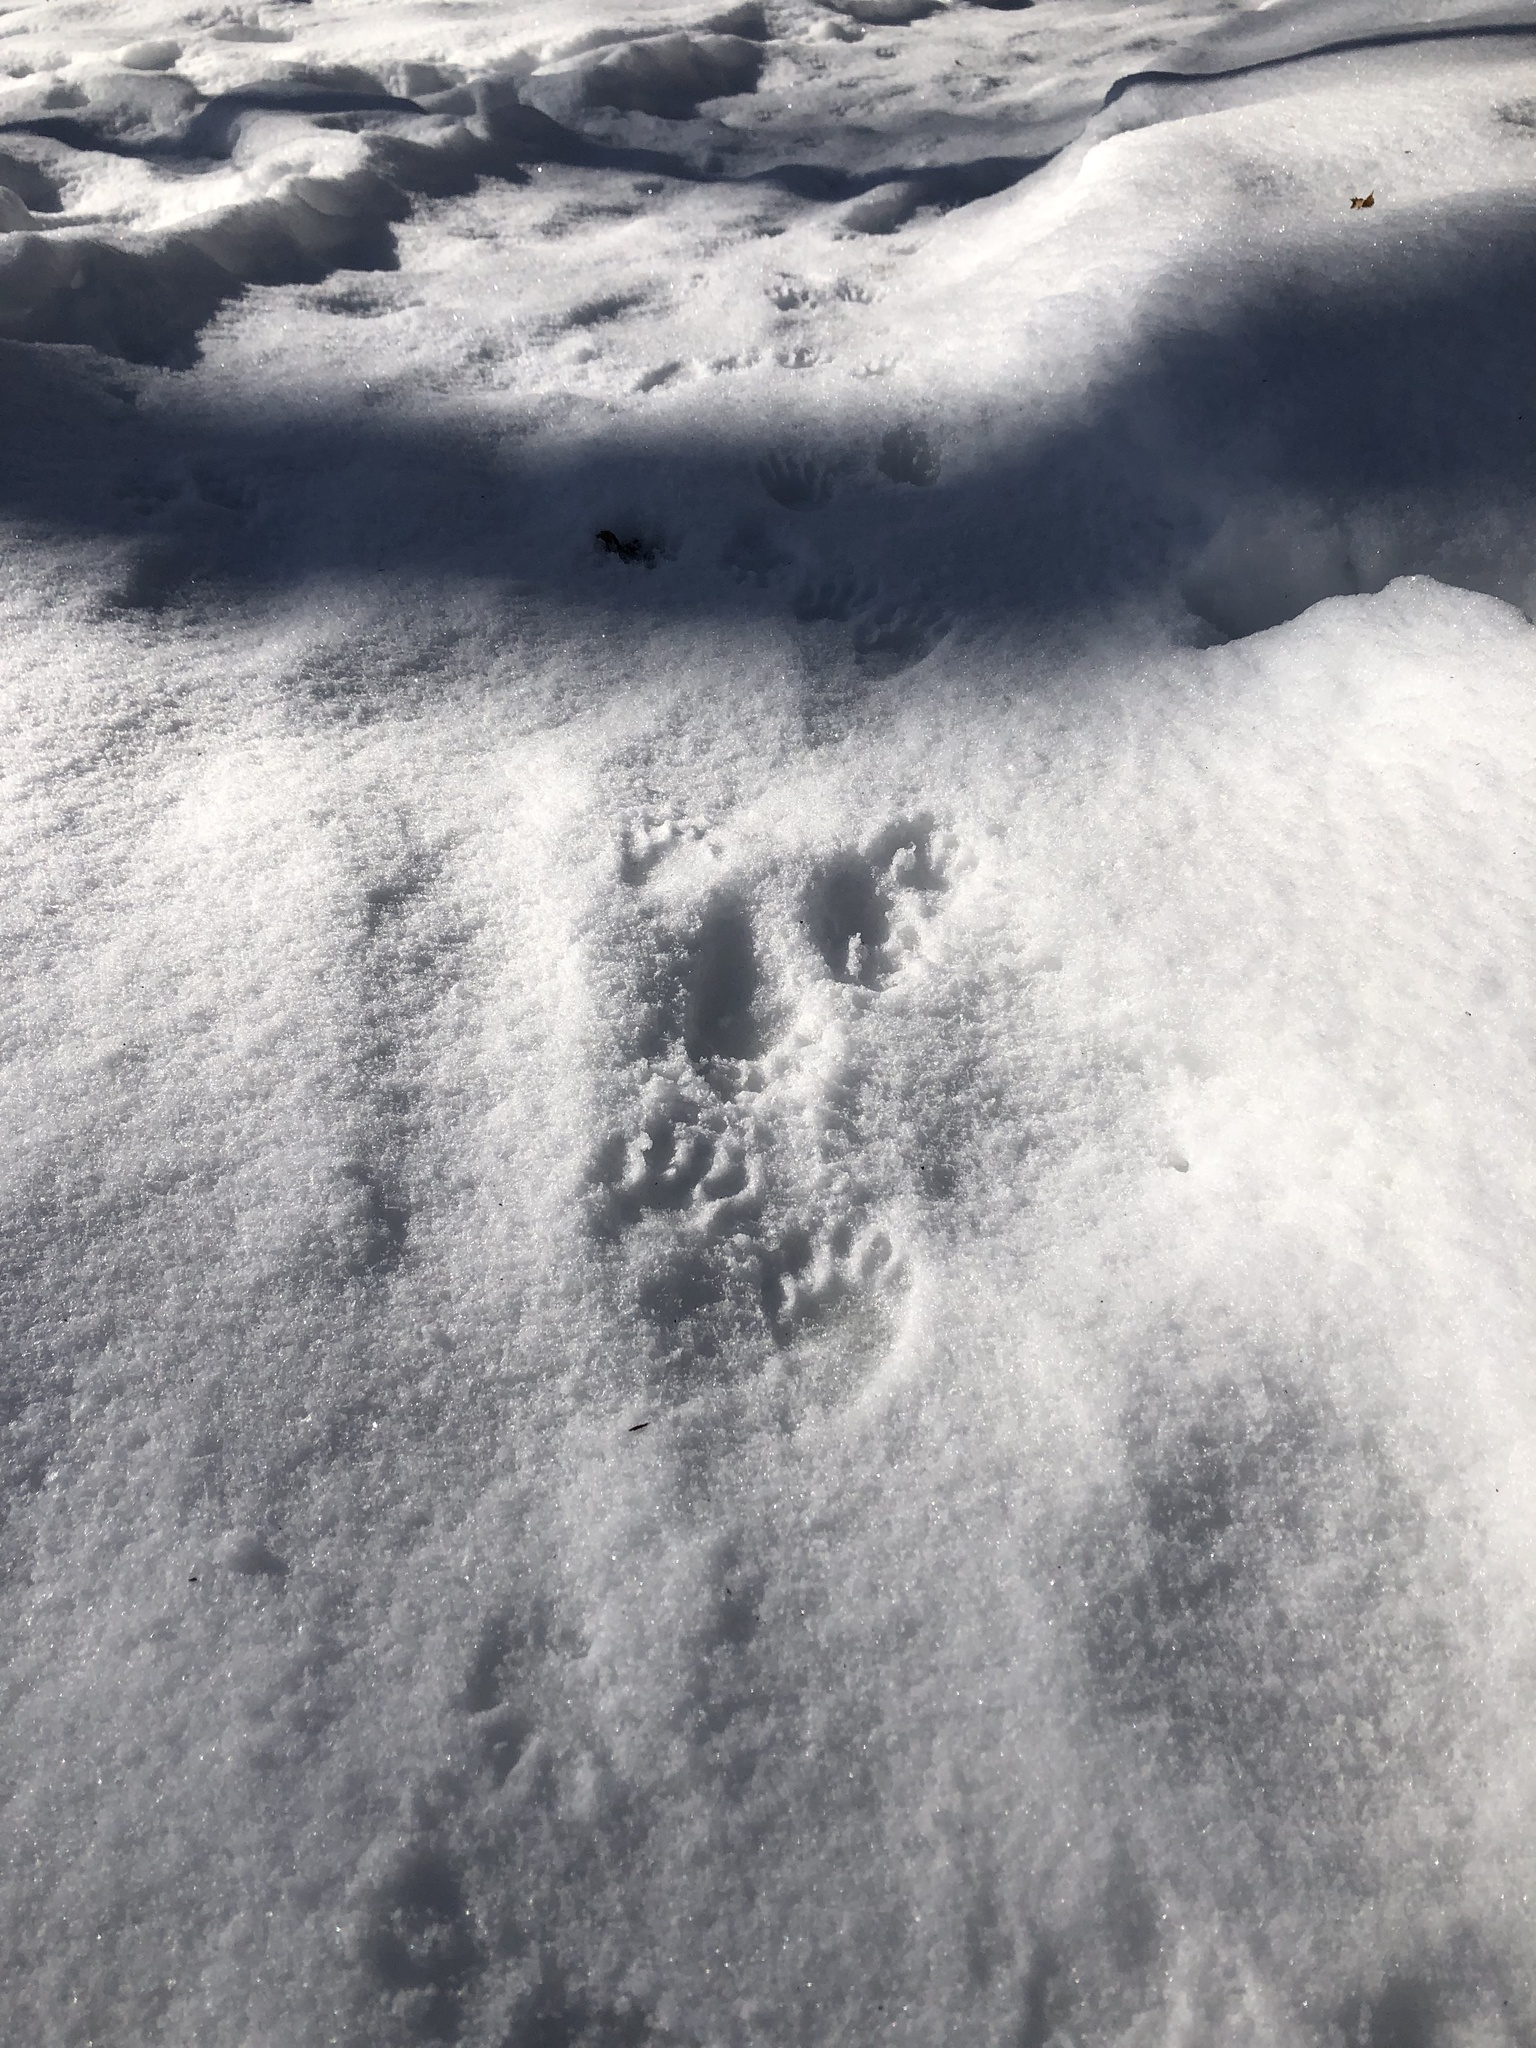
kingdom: Animalia
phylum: Chordata
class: Mammalia
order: Carnivora
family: Procyonidae
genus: Procyon
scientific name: Procyon lotor
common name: Raccoon
